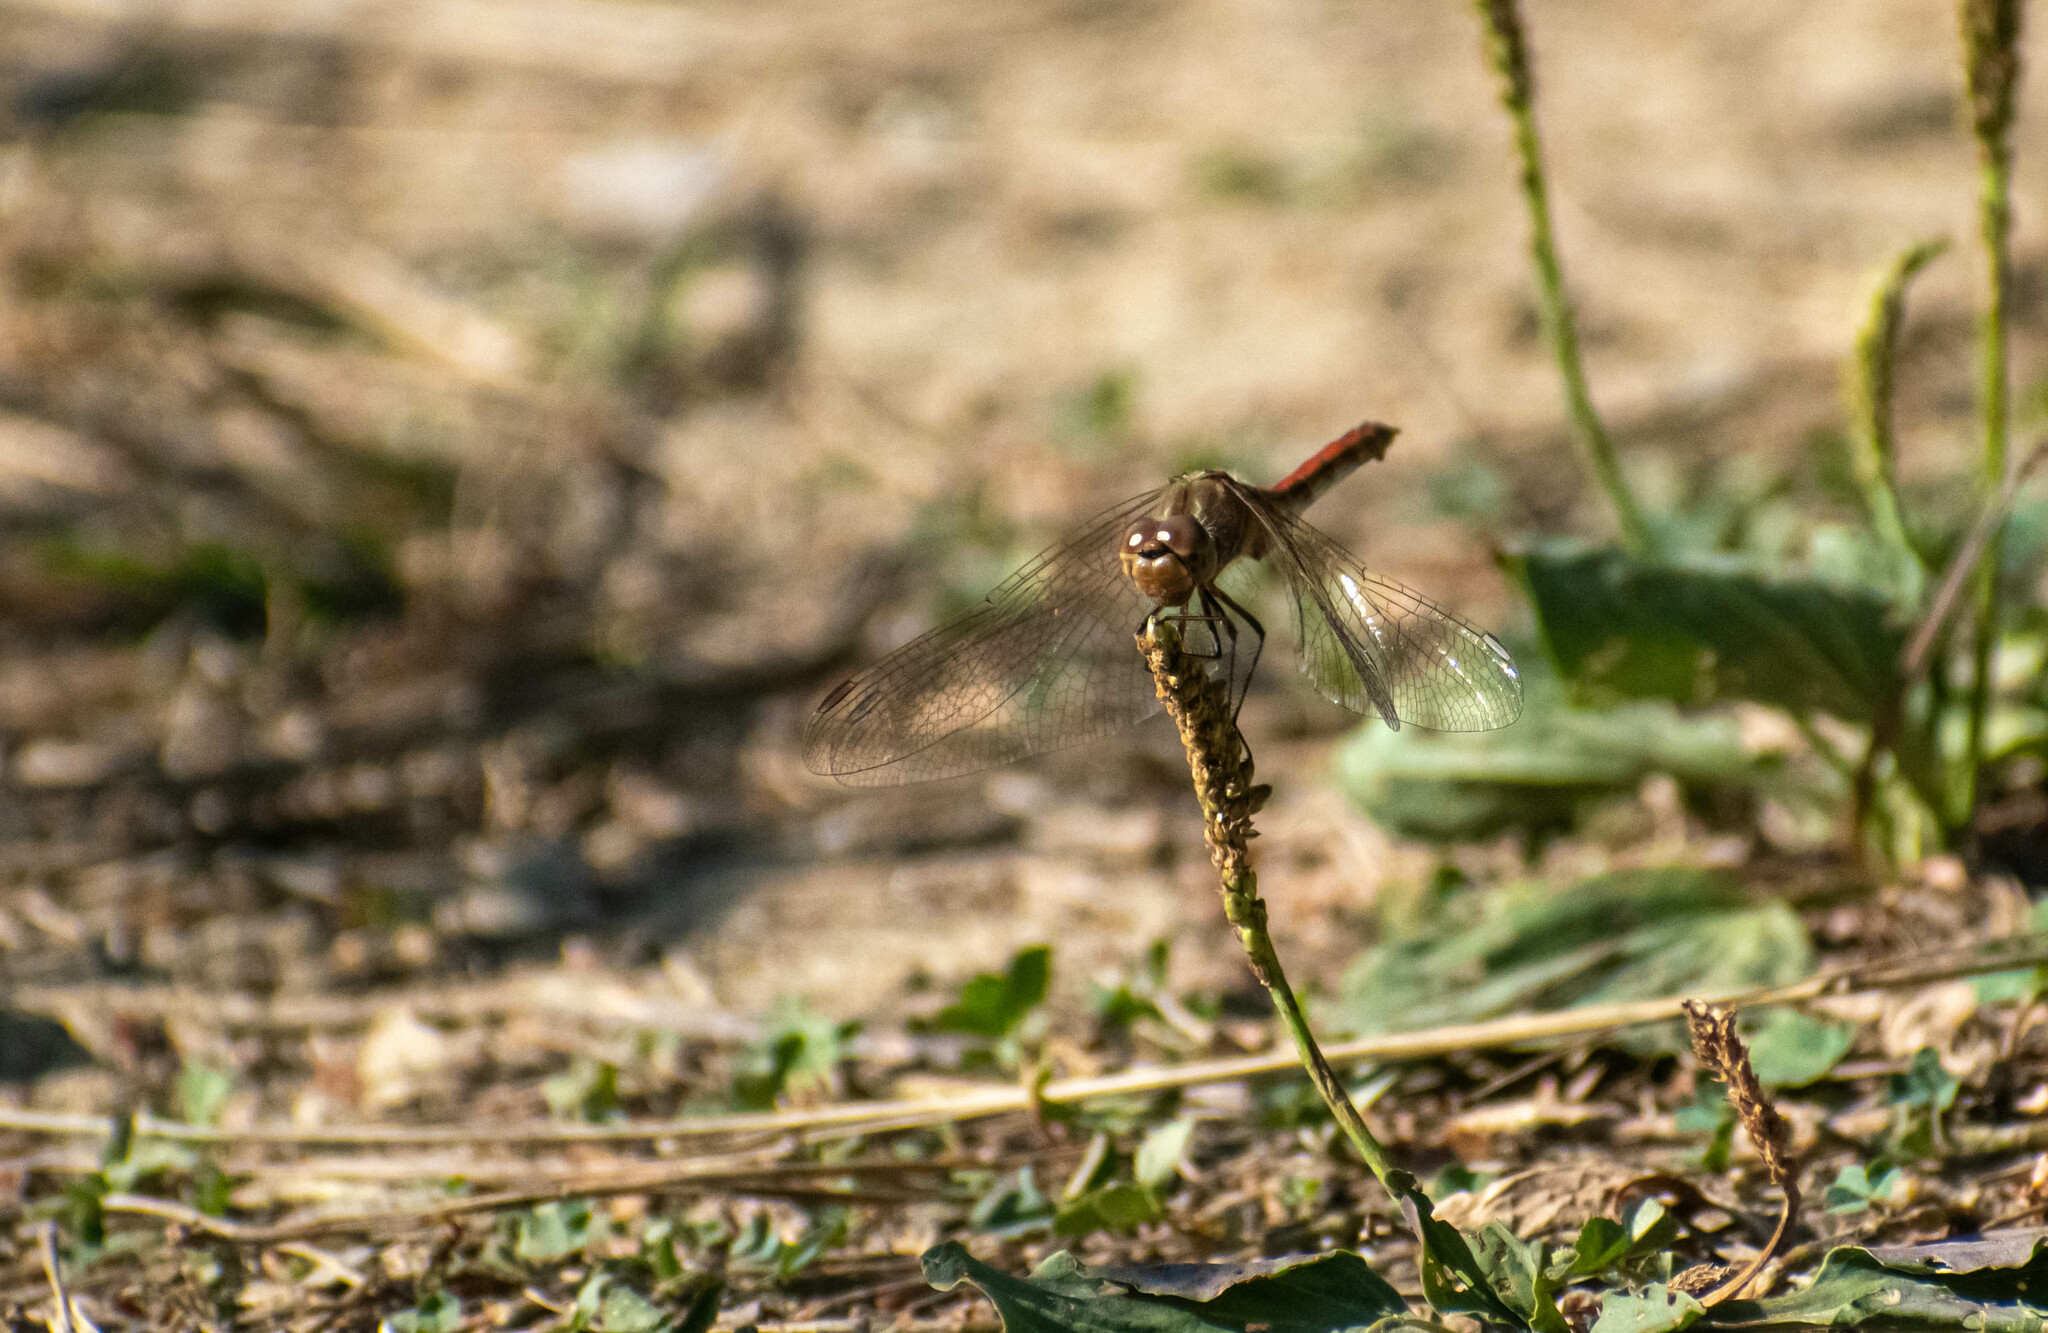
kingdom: Animalia
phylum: Arthropoda
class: Insecta
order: Odonata
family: Libellulidae
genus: Sympetrum
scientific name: Sympetrum vulgatum
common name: Vagrant darter
